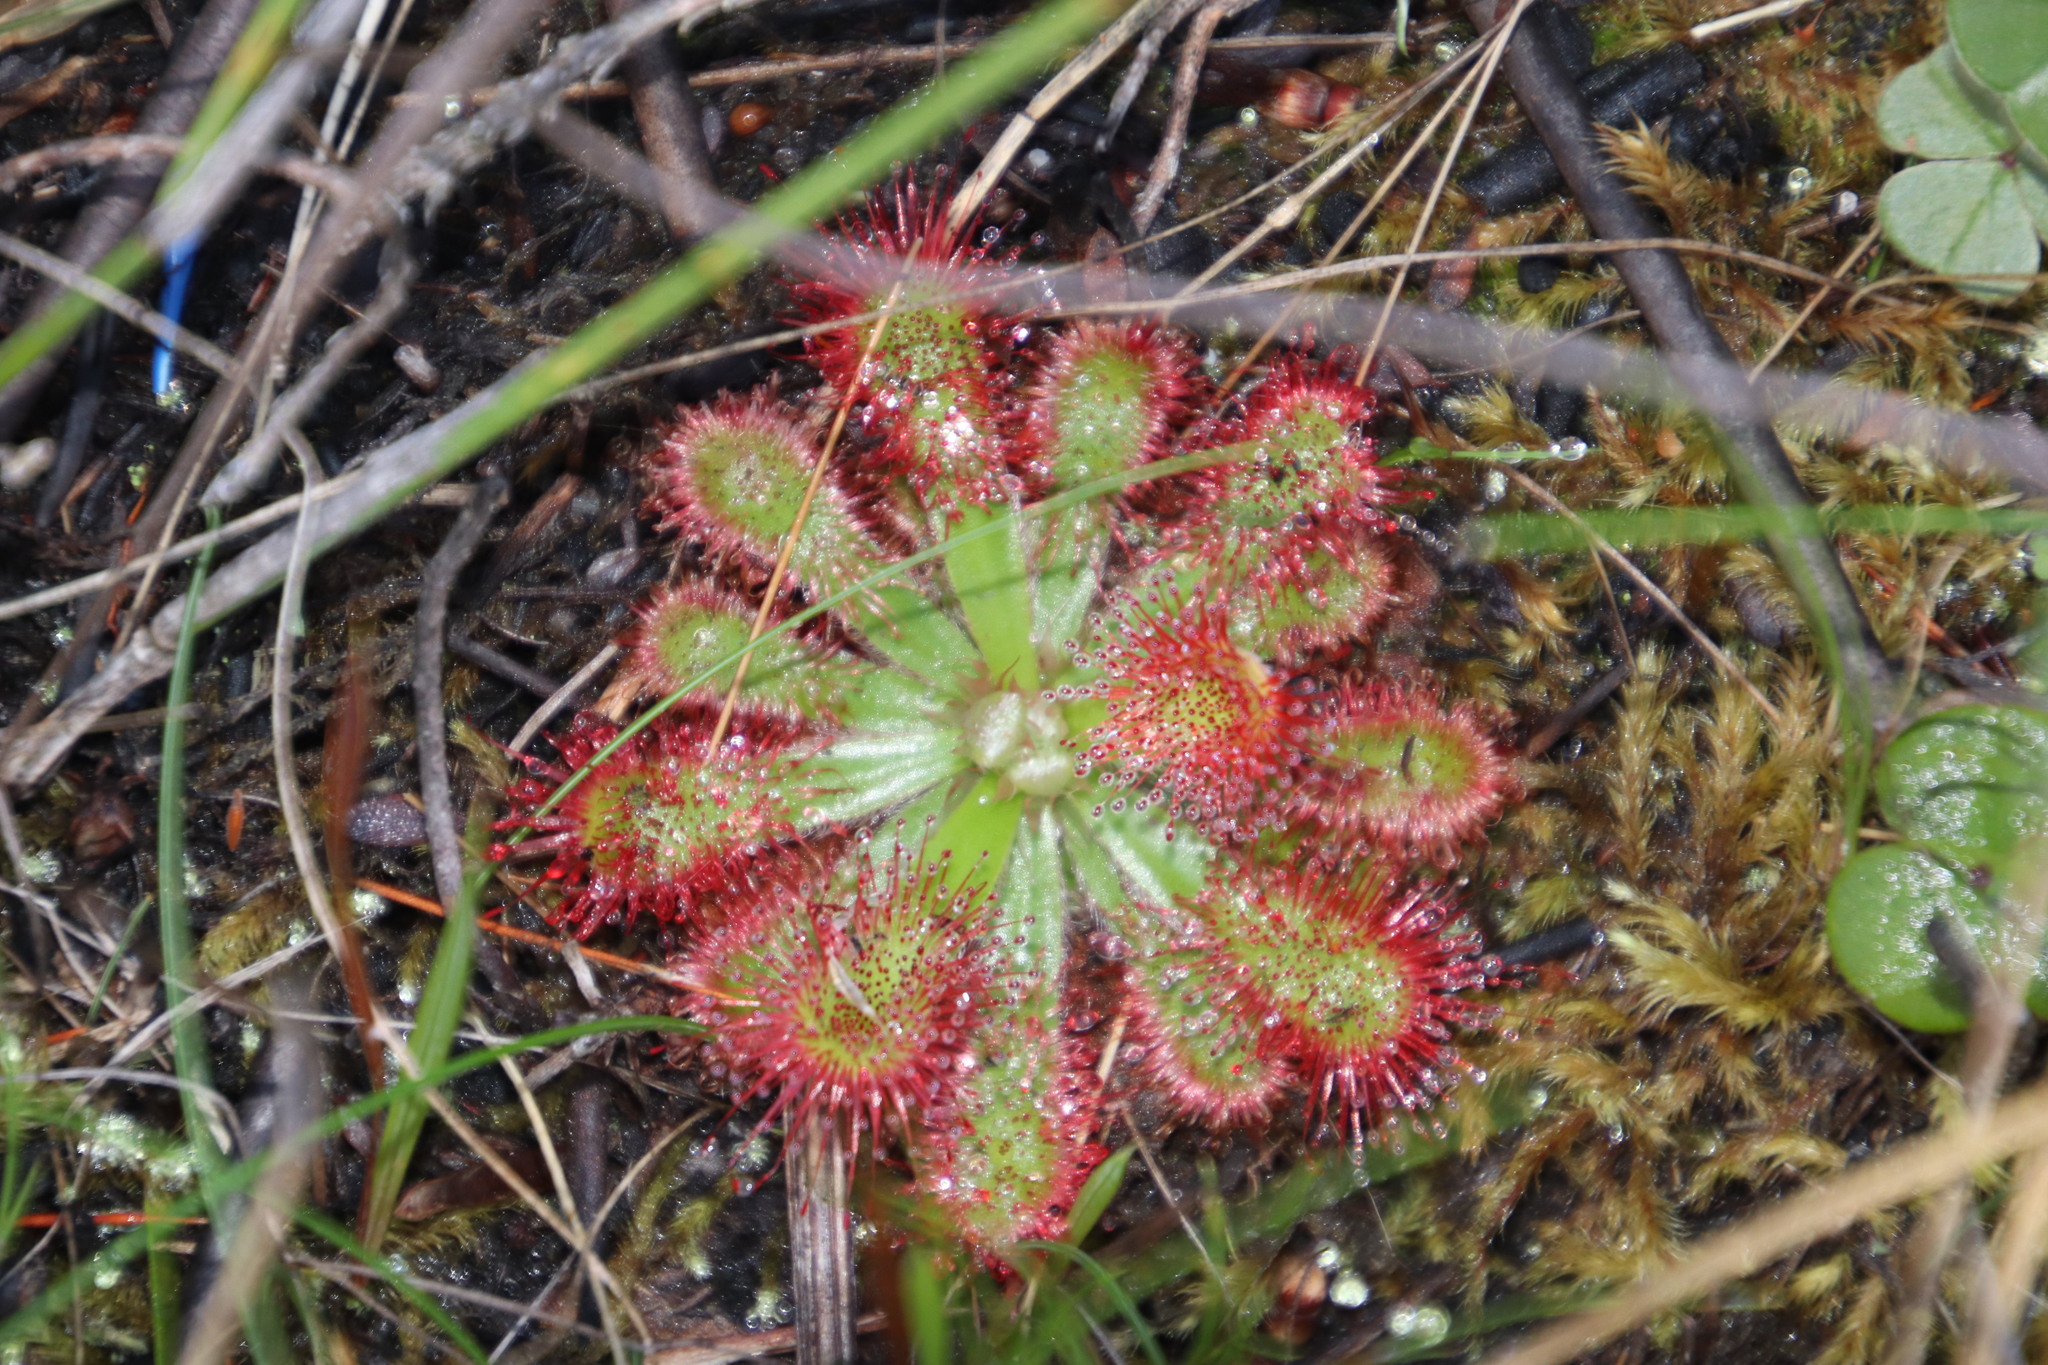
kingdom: Plantae
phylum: Tracheophyta
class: Magnoliopsida
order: Caryophyllales
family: Droseraceae
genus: Drosera
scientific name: Drosera aliciae
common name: Alice sundew
